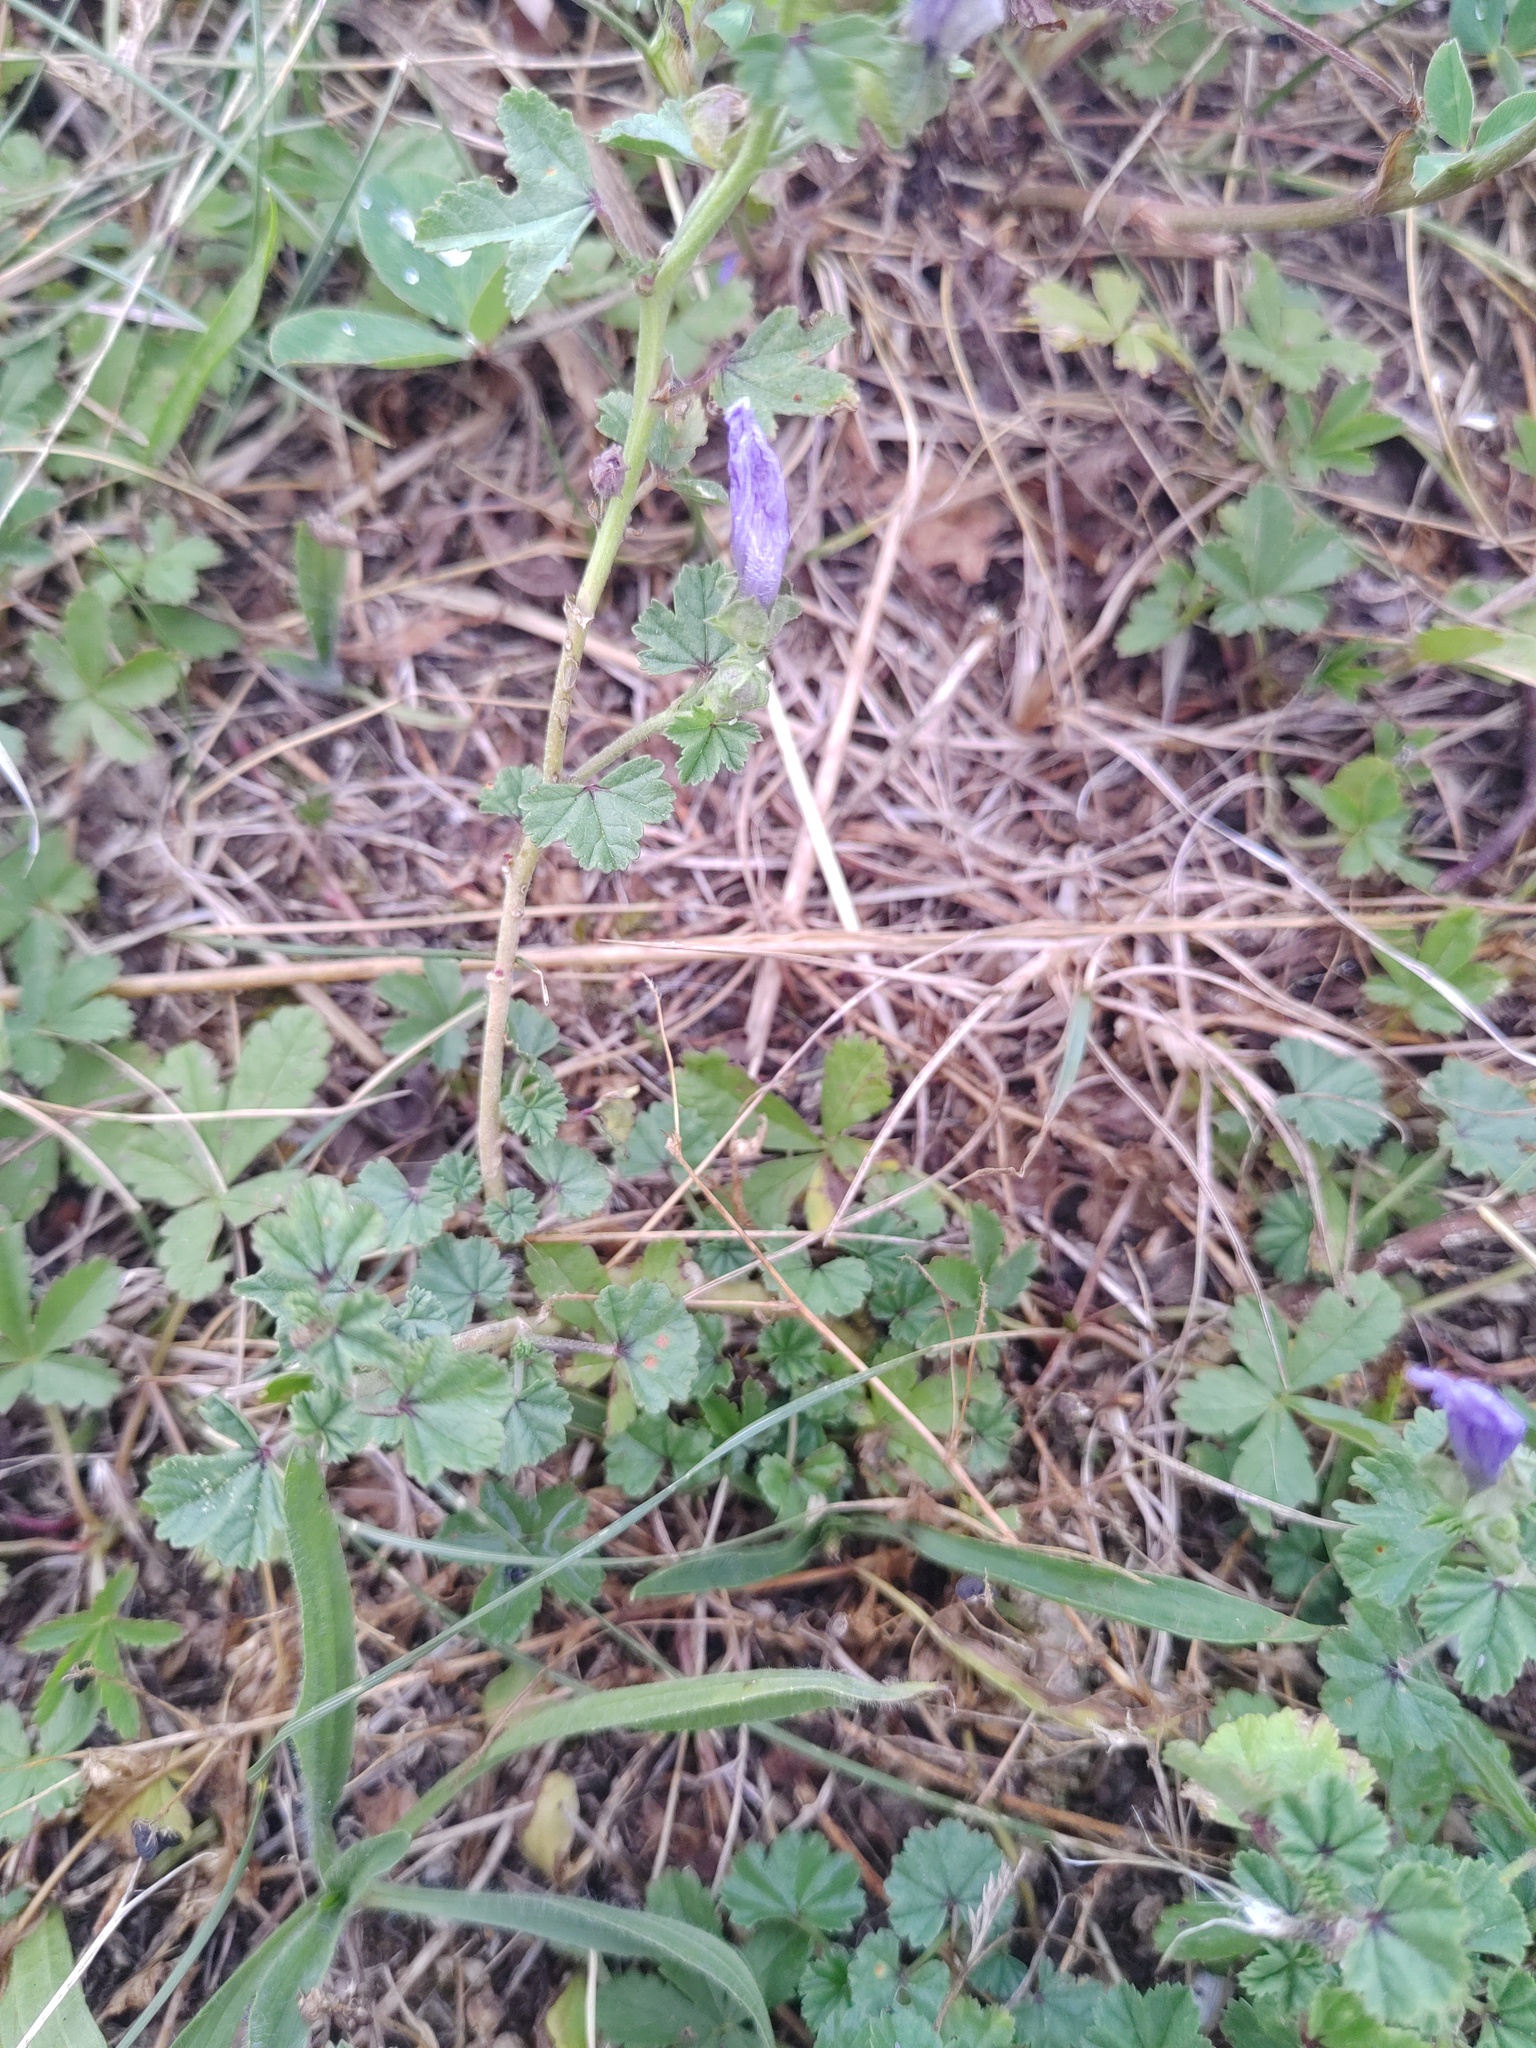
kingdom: Plantae
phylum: Tracheophyta
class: Magnoliopsida
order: Malvales
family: Malvaceae
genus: Malva
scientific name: Malva sylvestris
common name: Common mallow
